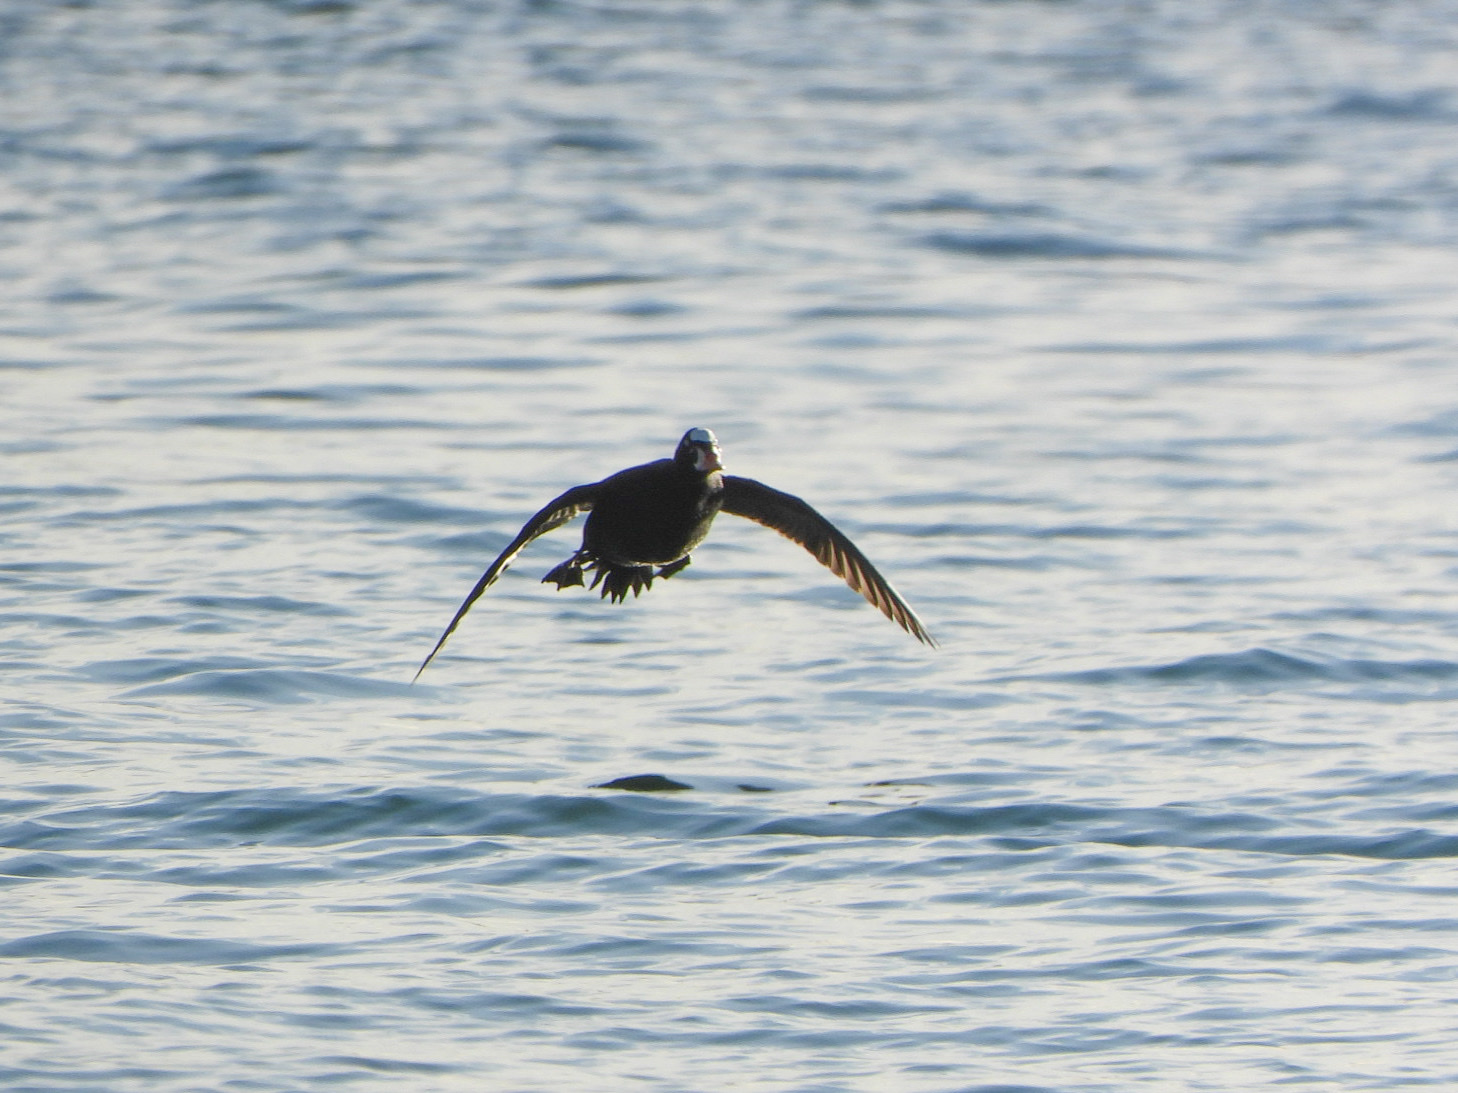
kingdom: Animalia
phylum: Chordata
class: Aves
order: Anseriformes
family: Anatidae
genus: Melanitta
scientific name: Melanitta perspicillata
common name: Surf scoter
